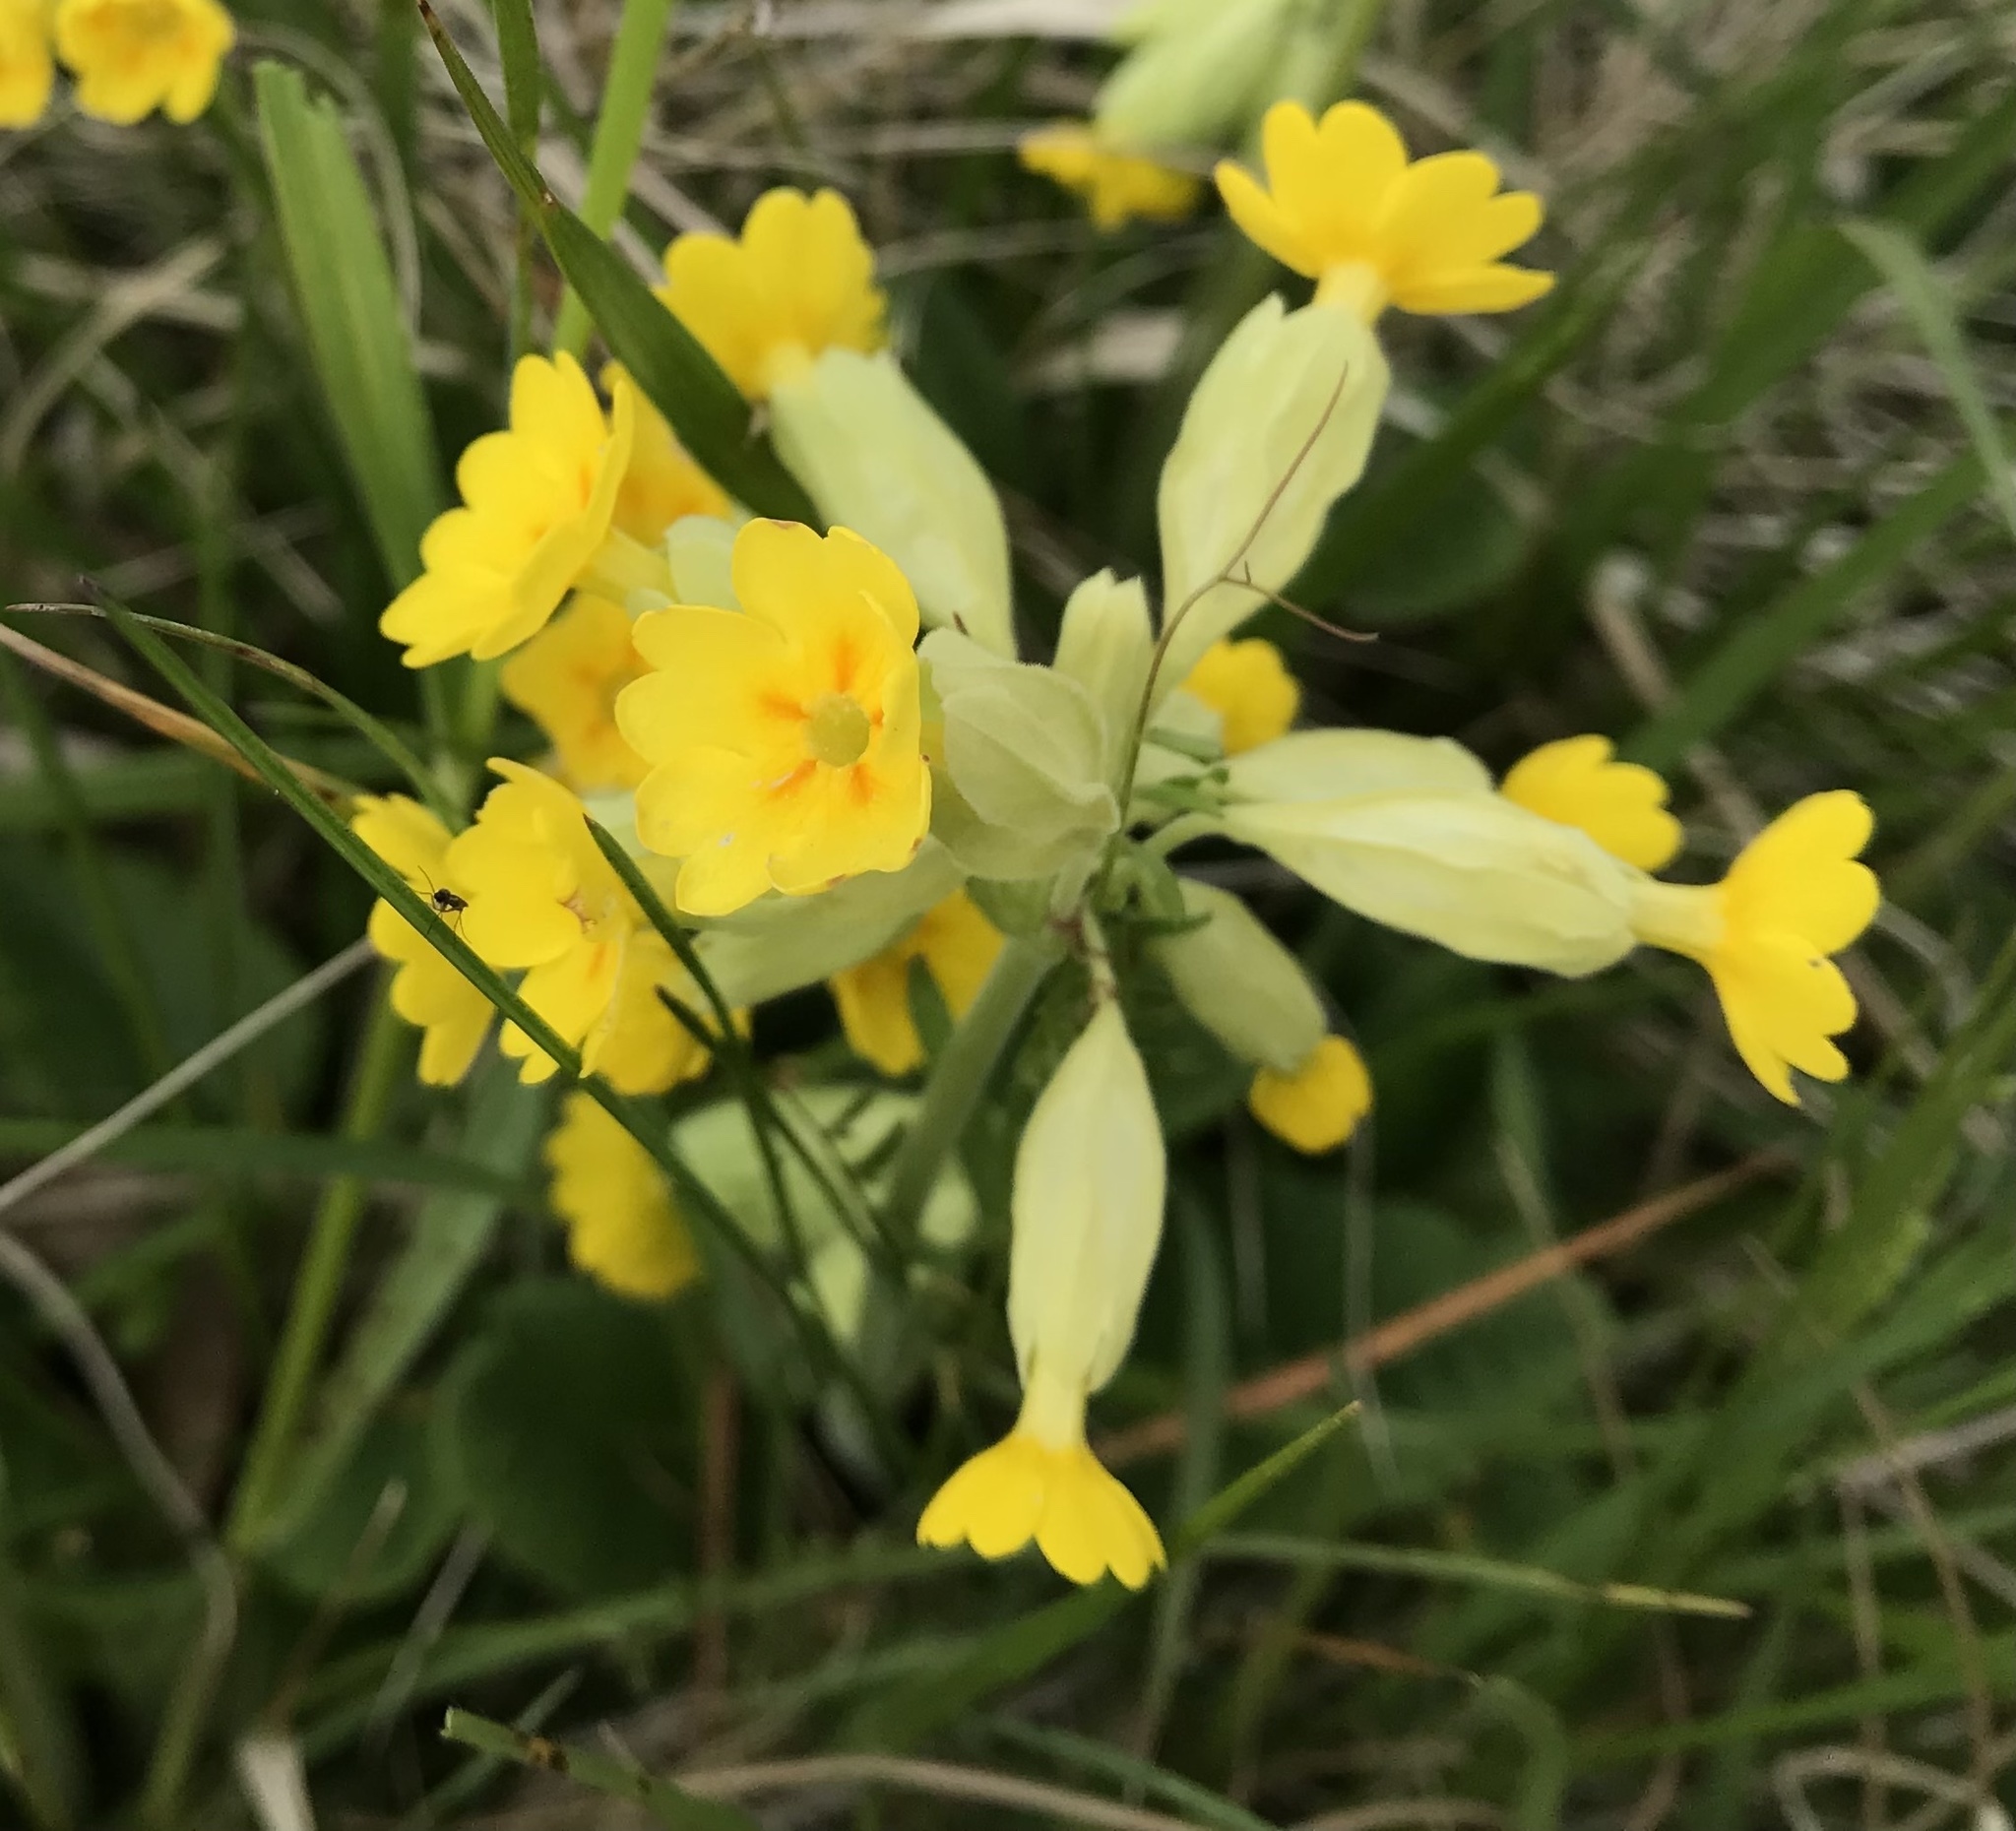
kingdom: Plantae
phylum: Tracheophyta
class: Magnoliopsida
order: Ericales
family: Primulaceae
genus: Primula
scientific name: Primula veris
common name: Cowslip
